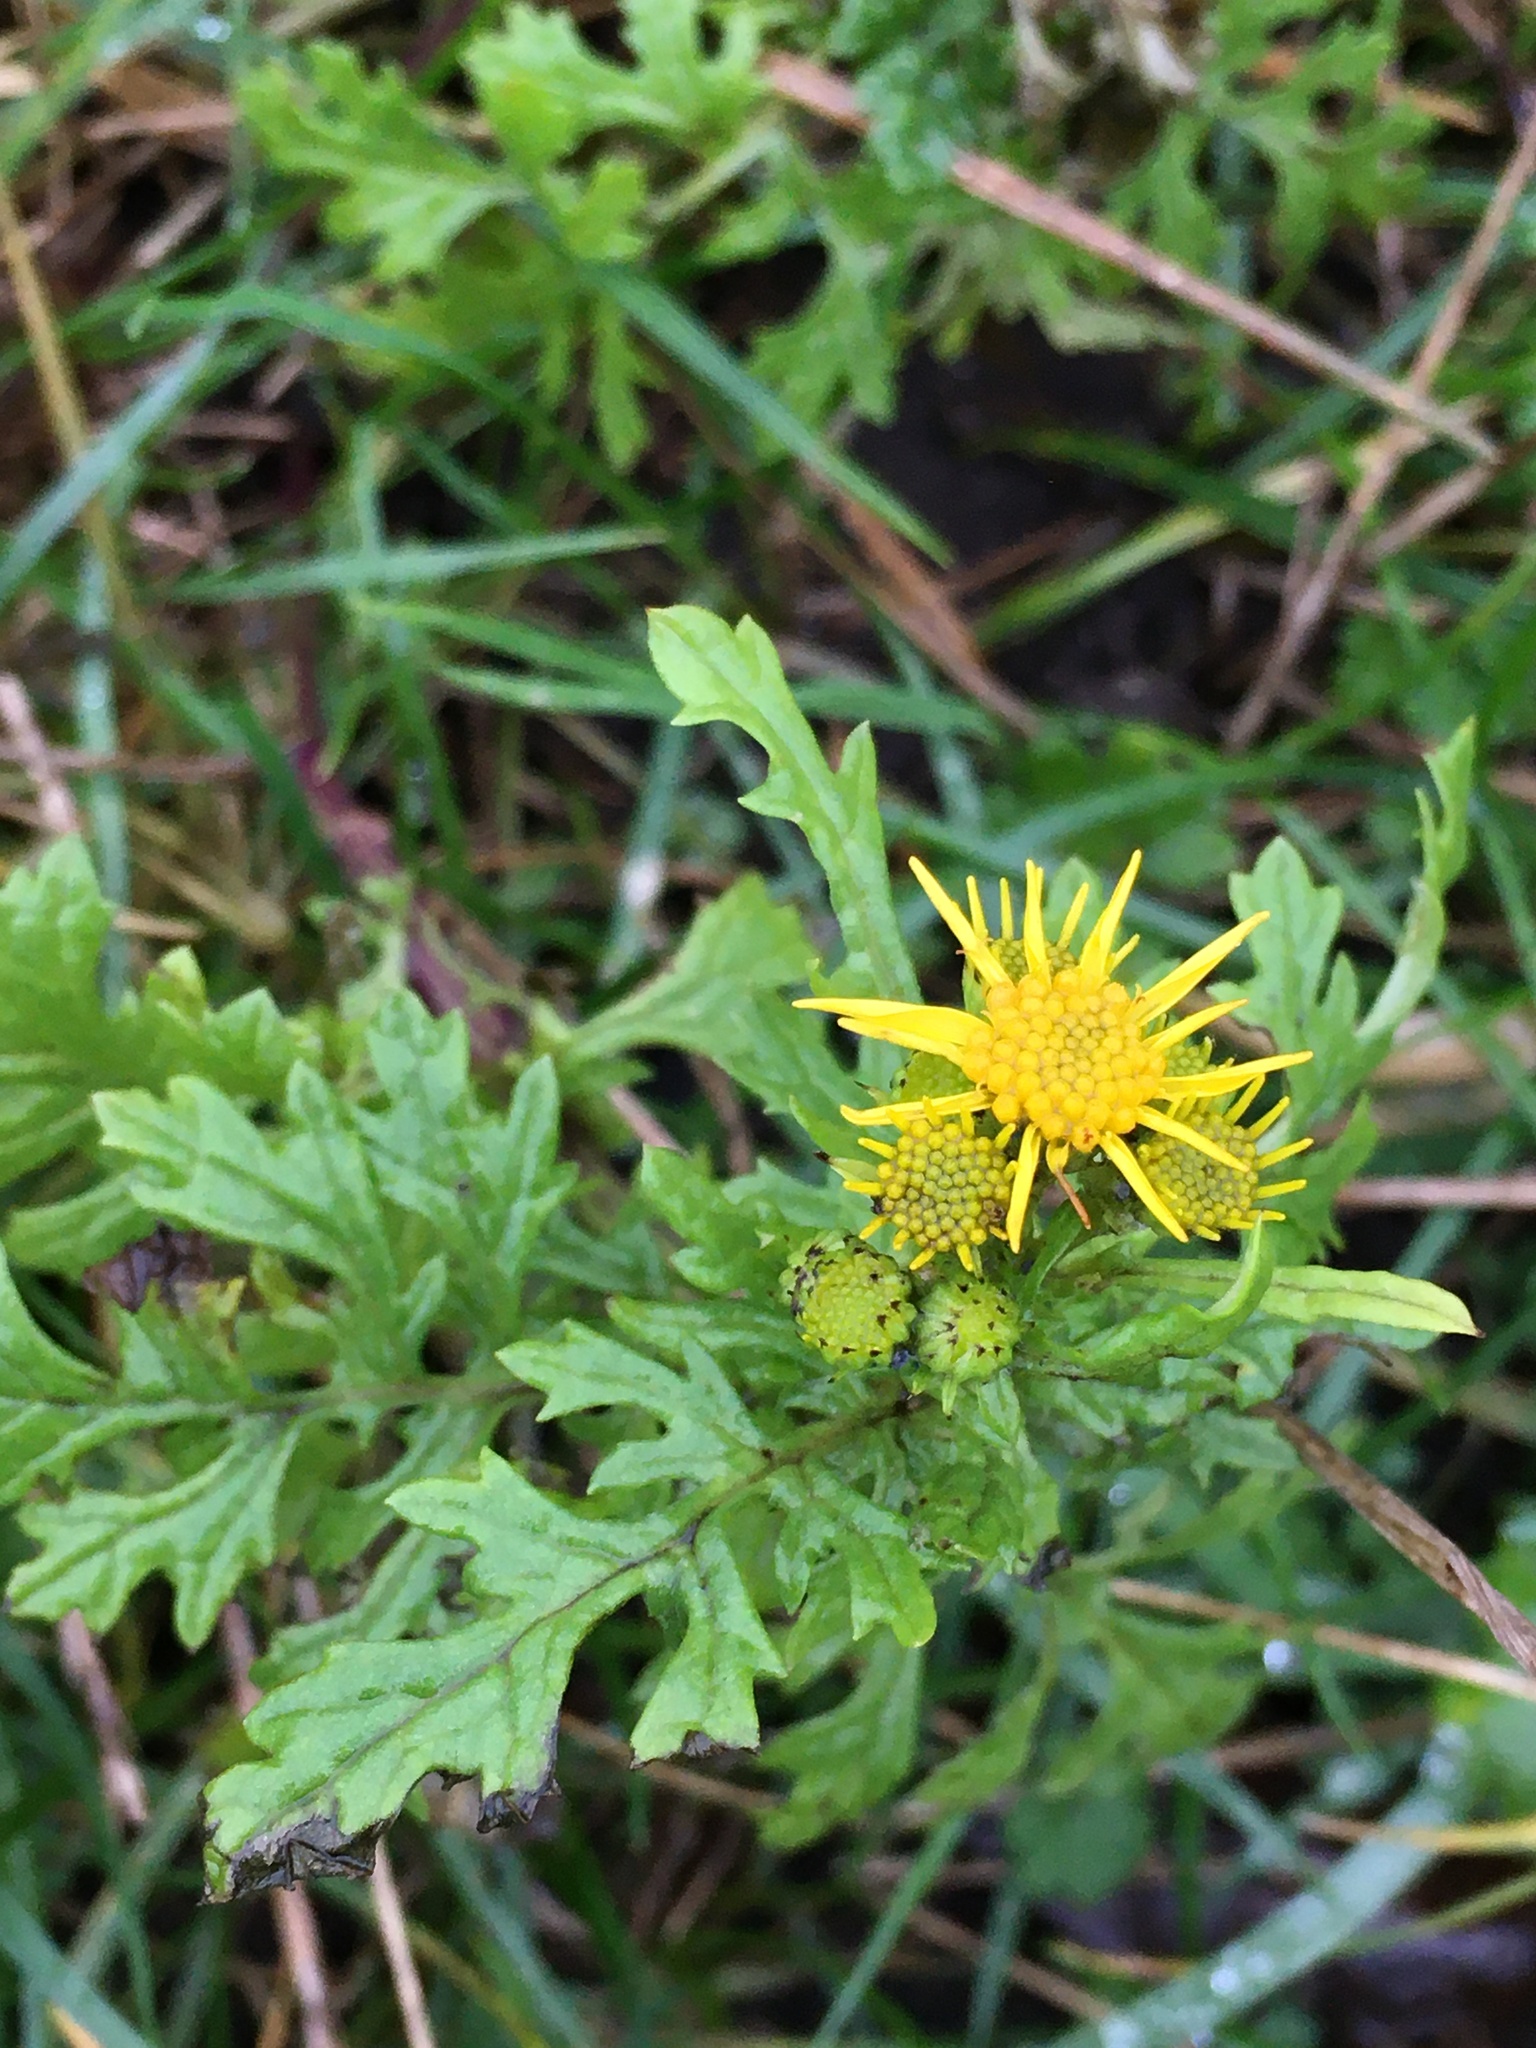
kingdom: Plantae
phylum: Tracheophyta
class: Magnoliopsida
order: Asterales
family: Asteraceae
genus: Jacobaea
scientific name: Jacobaea vulgaris
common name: Stinking willie
